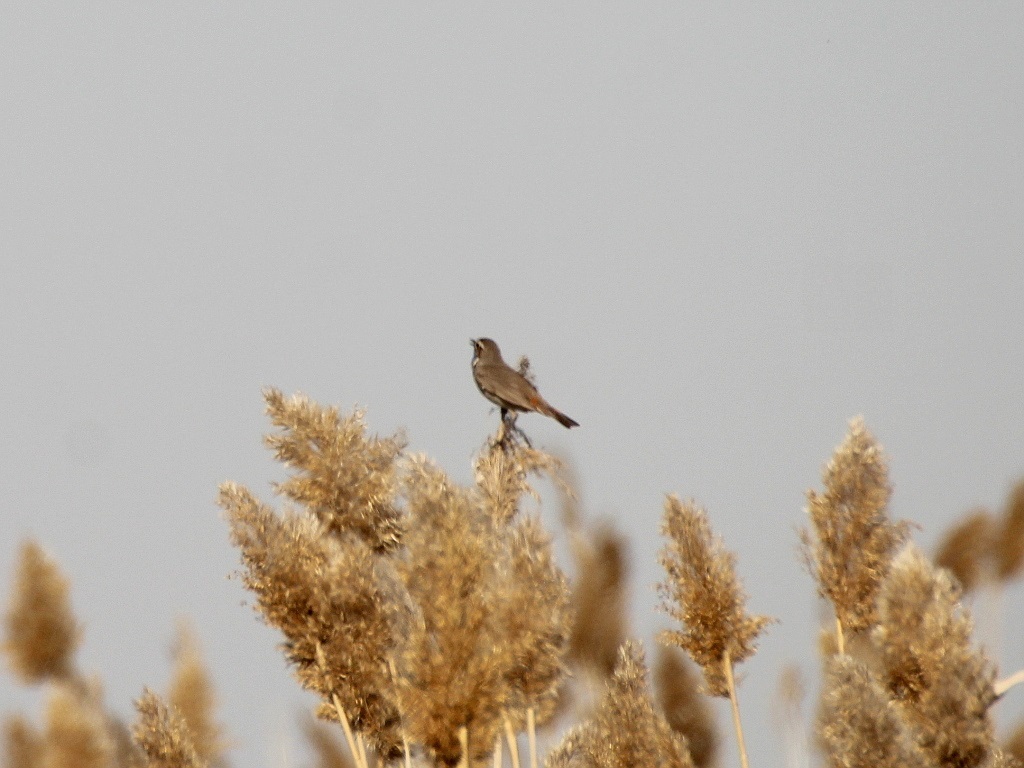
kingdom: Animalia
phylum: Chordata
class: Aves
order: Passeriformes
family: Muscicapidae
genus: Luscinia
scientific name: Luscinia svecica
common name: Bluethroat
